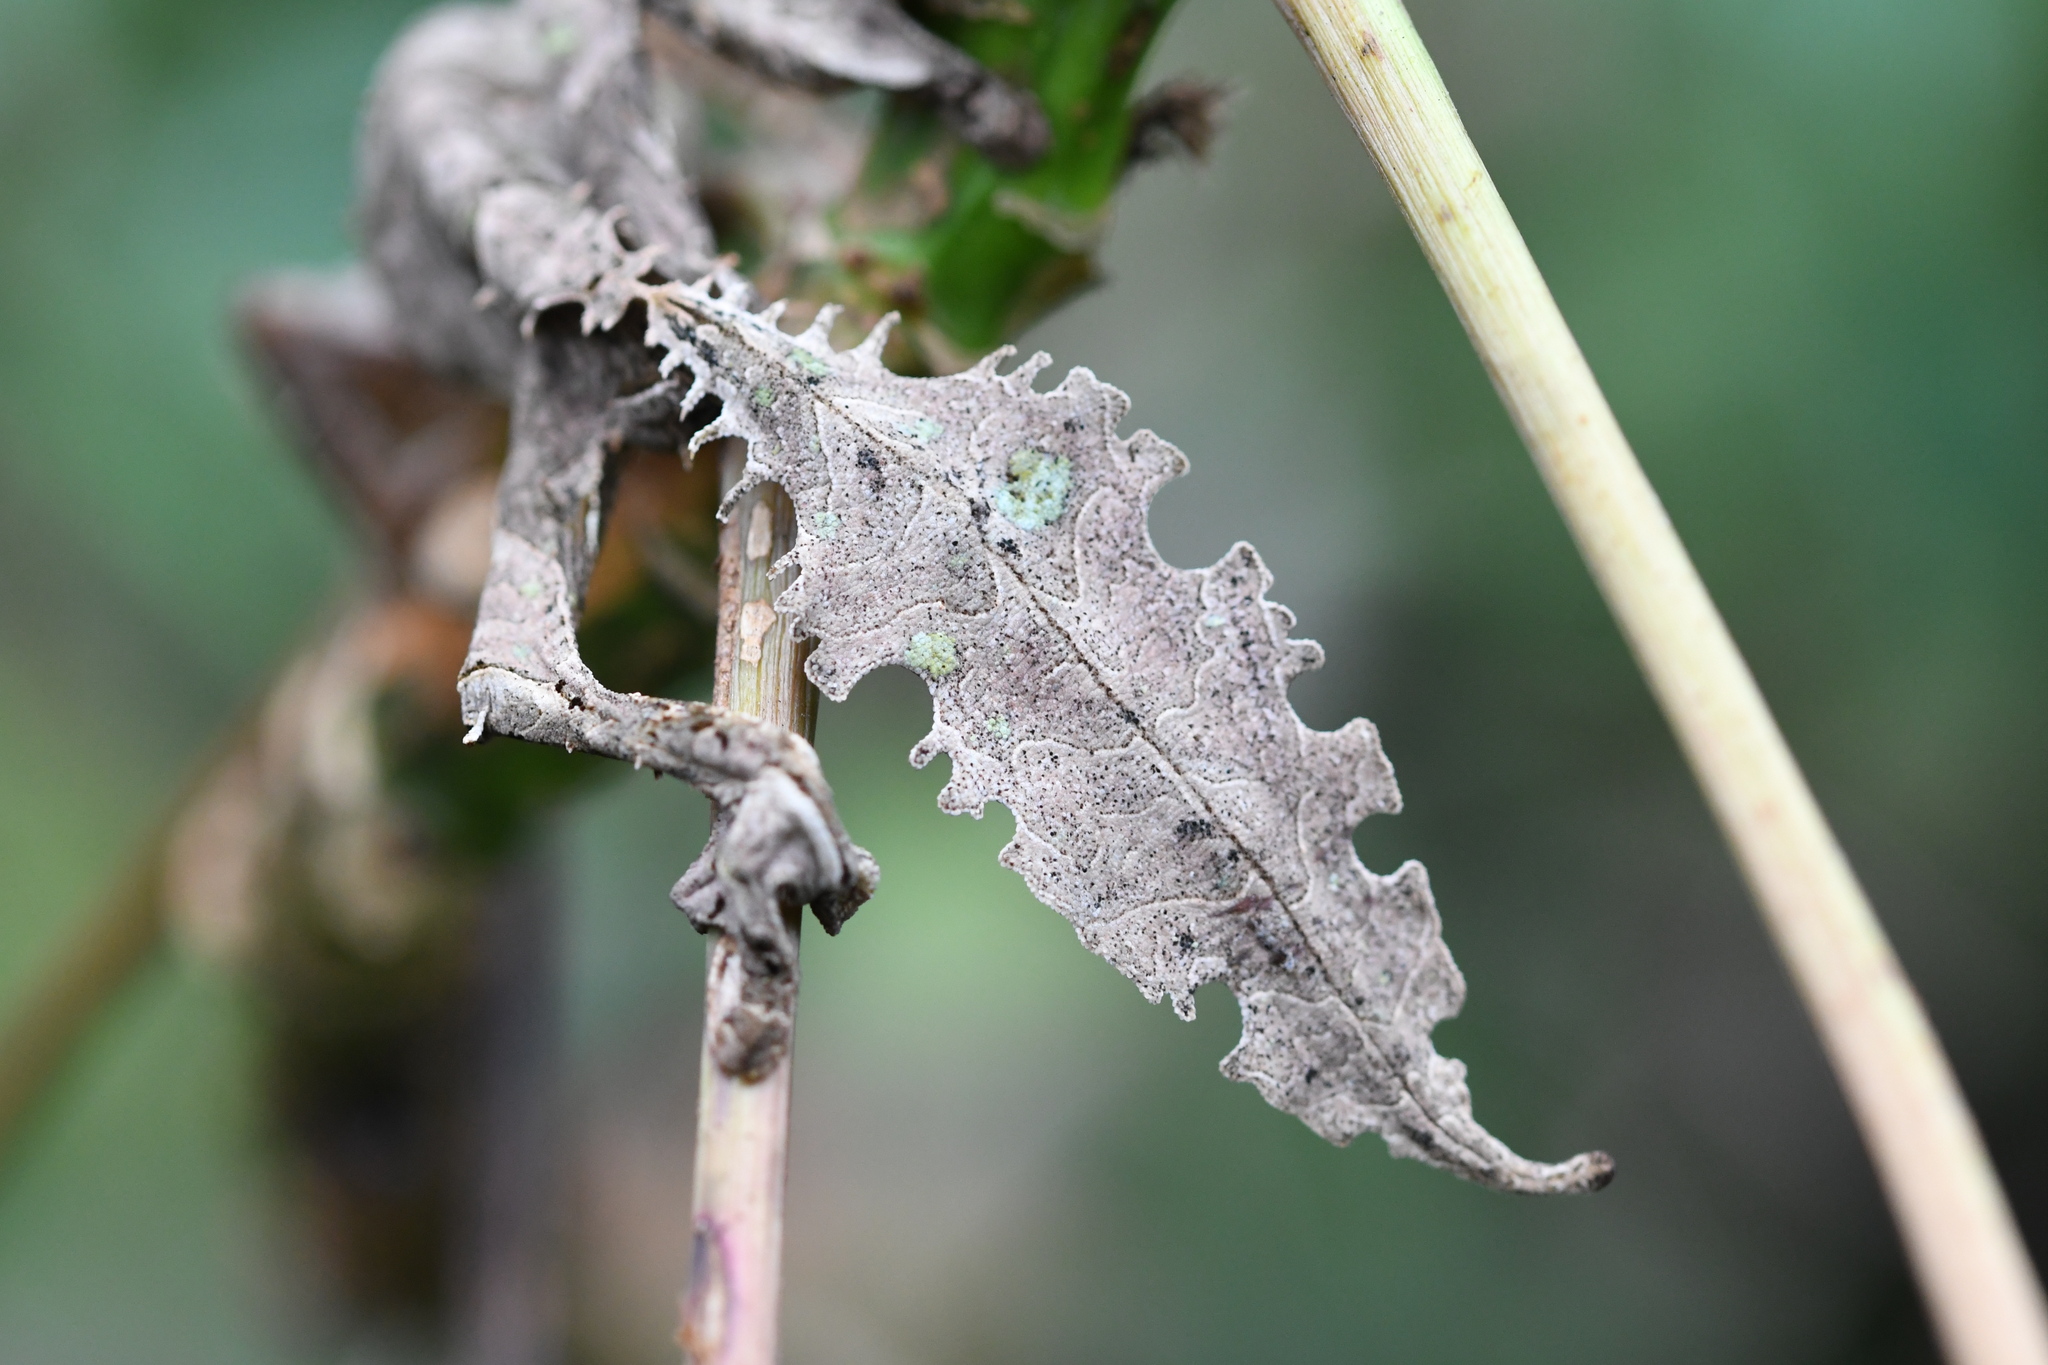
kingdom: Animalia
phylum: Chordata
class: Squamata
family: Gekkonidae
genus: Uroplatus
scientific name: Uroplatus phantasticus
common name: Phantastic leaf-tailed gecko
